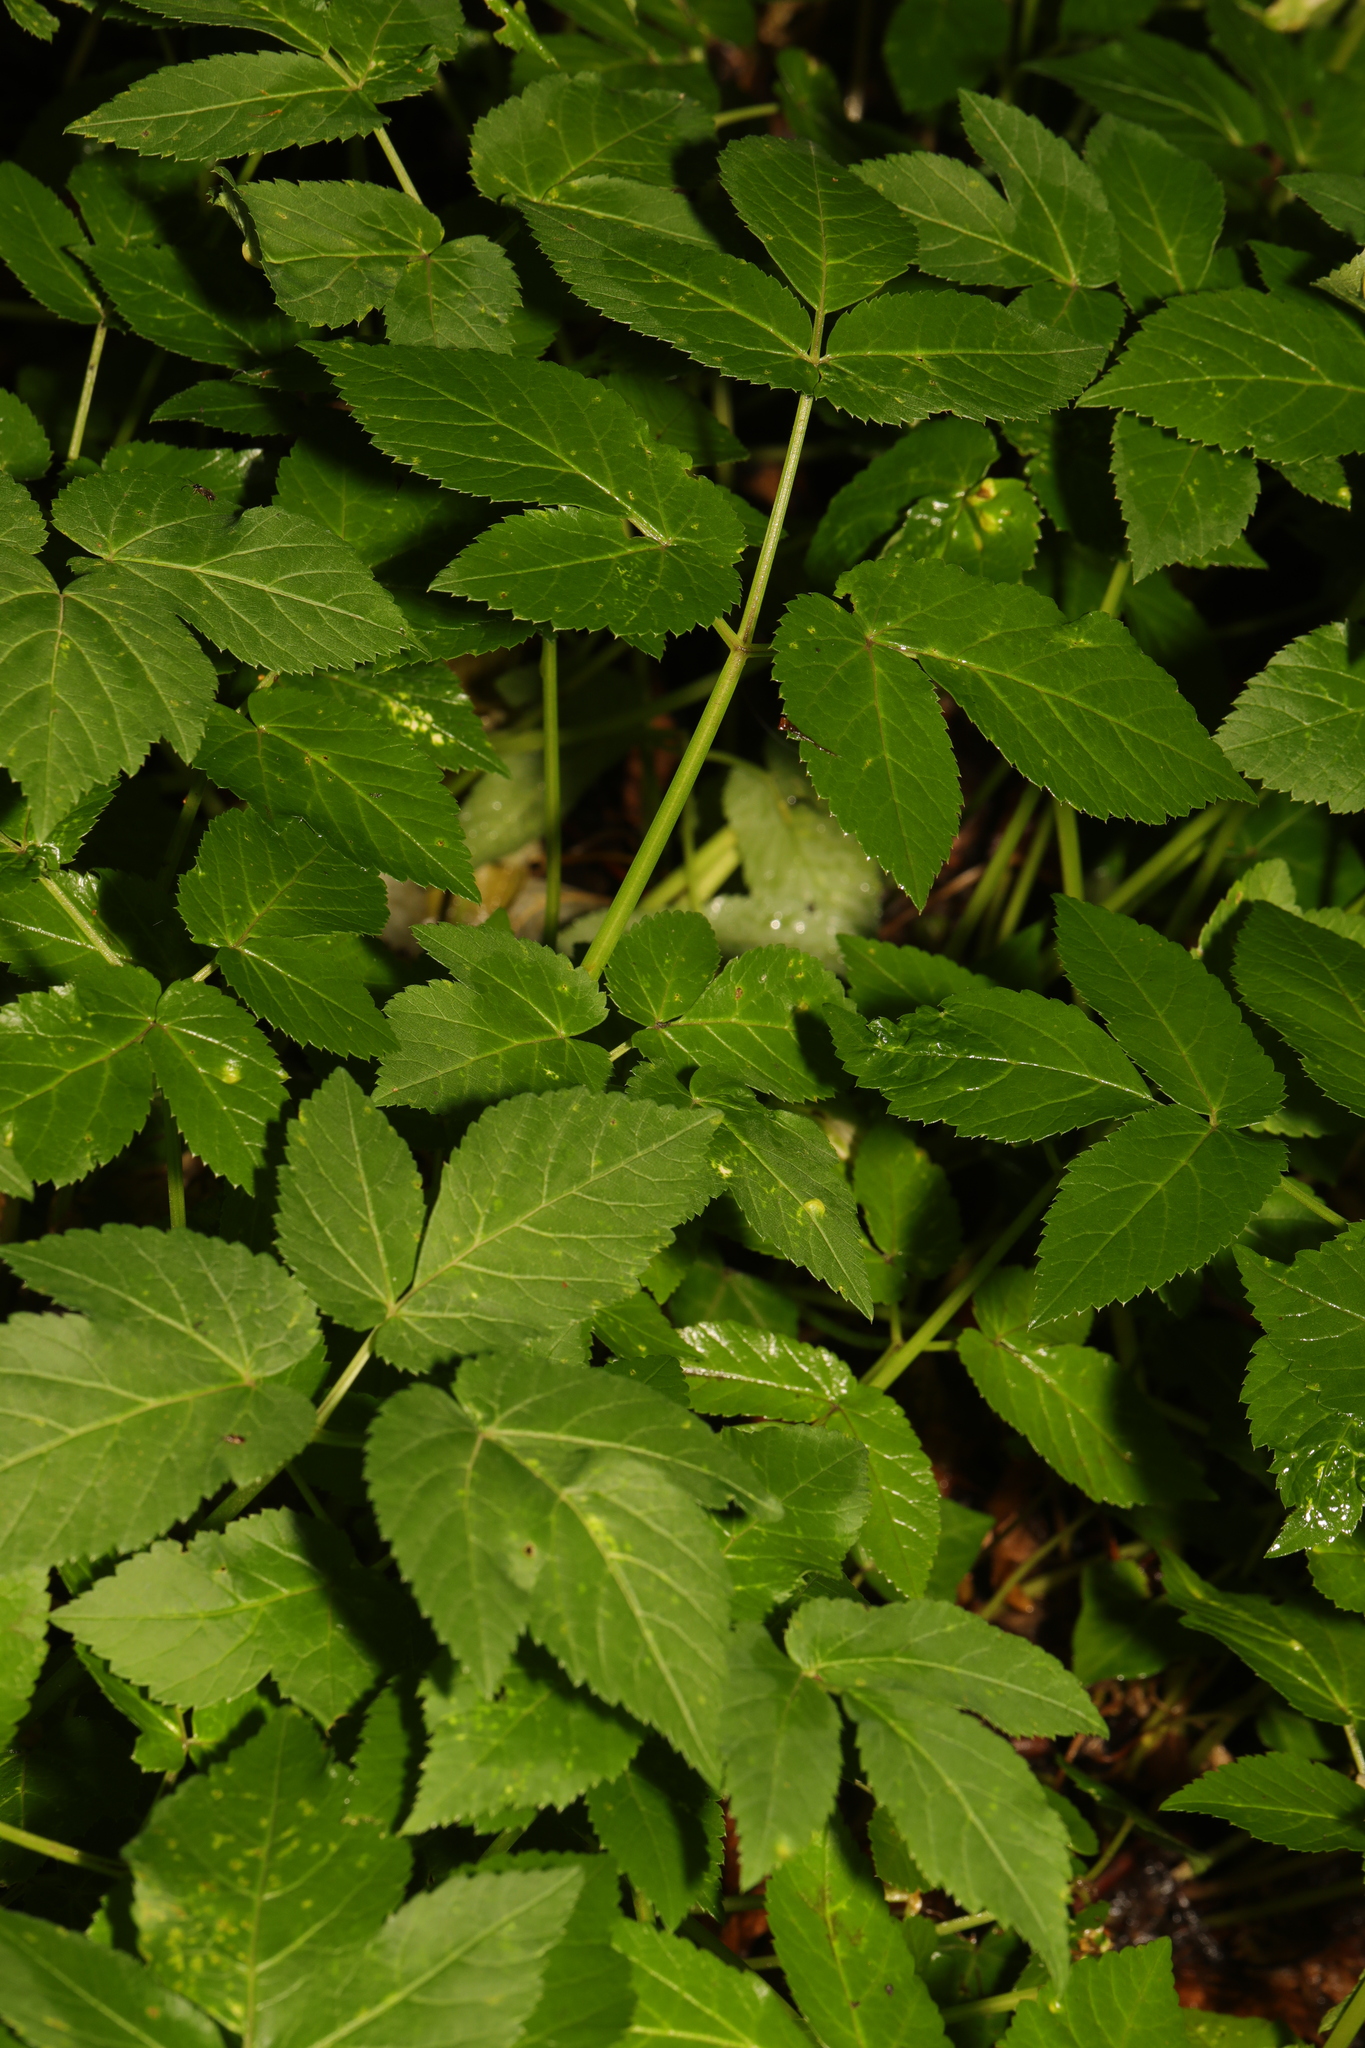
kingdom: Plantae
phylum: Tracheophyta
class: Magnoliopsida
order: Apiales
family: Apiaceae
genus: Aegopodium
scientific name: Aegopodium podagraria
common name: Ground-elder
